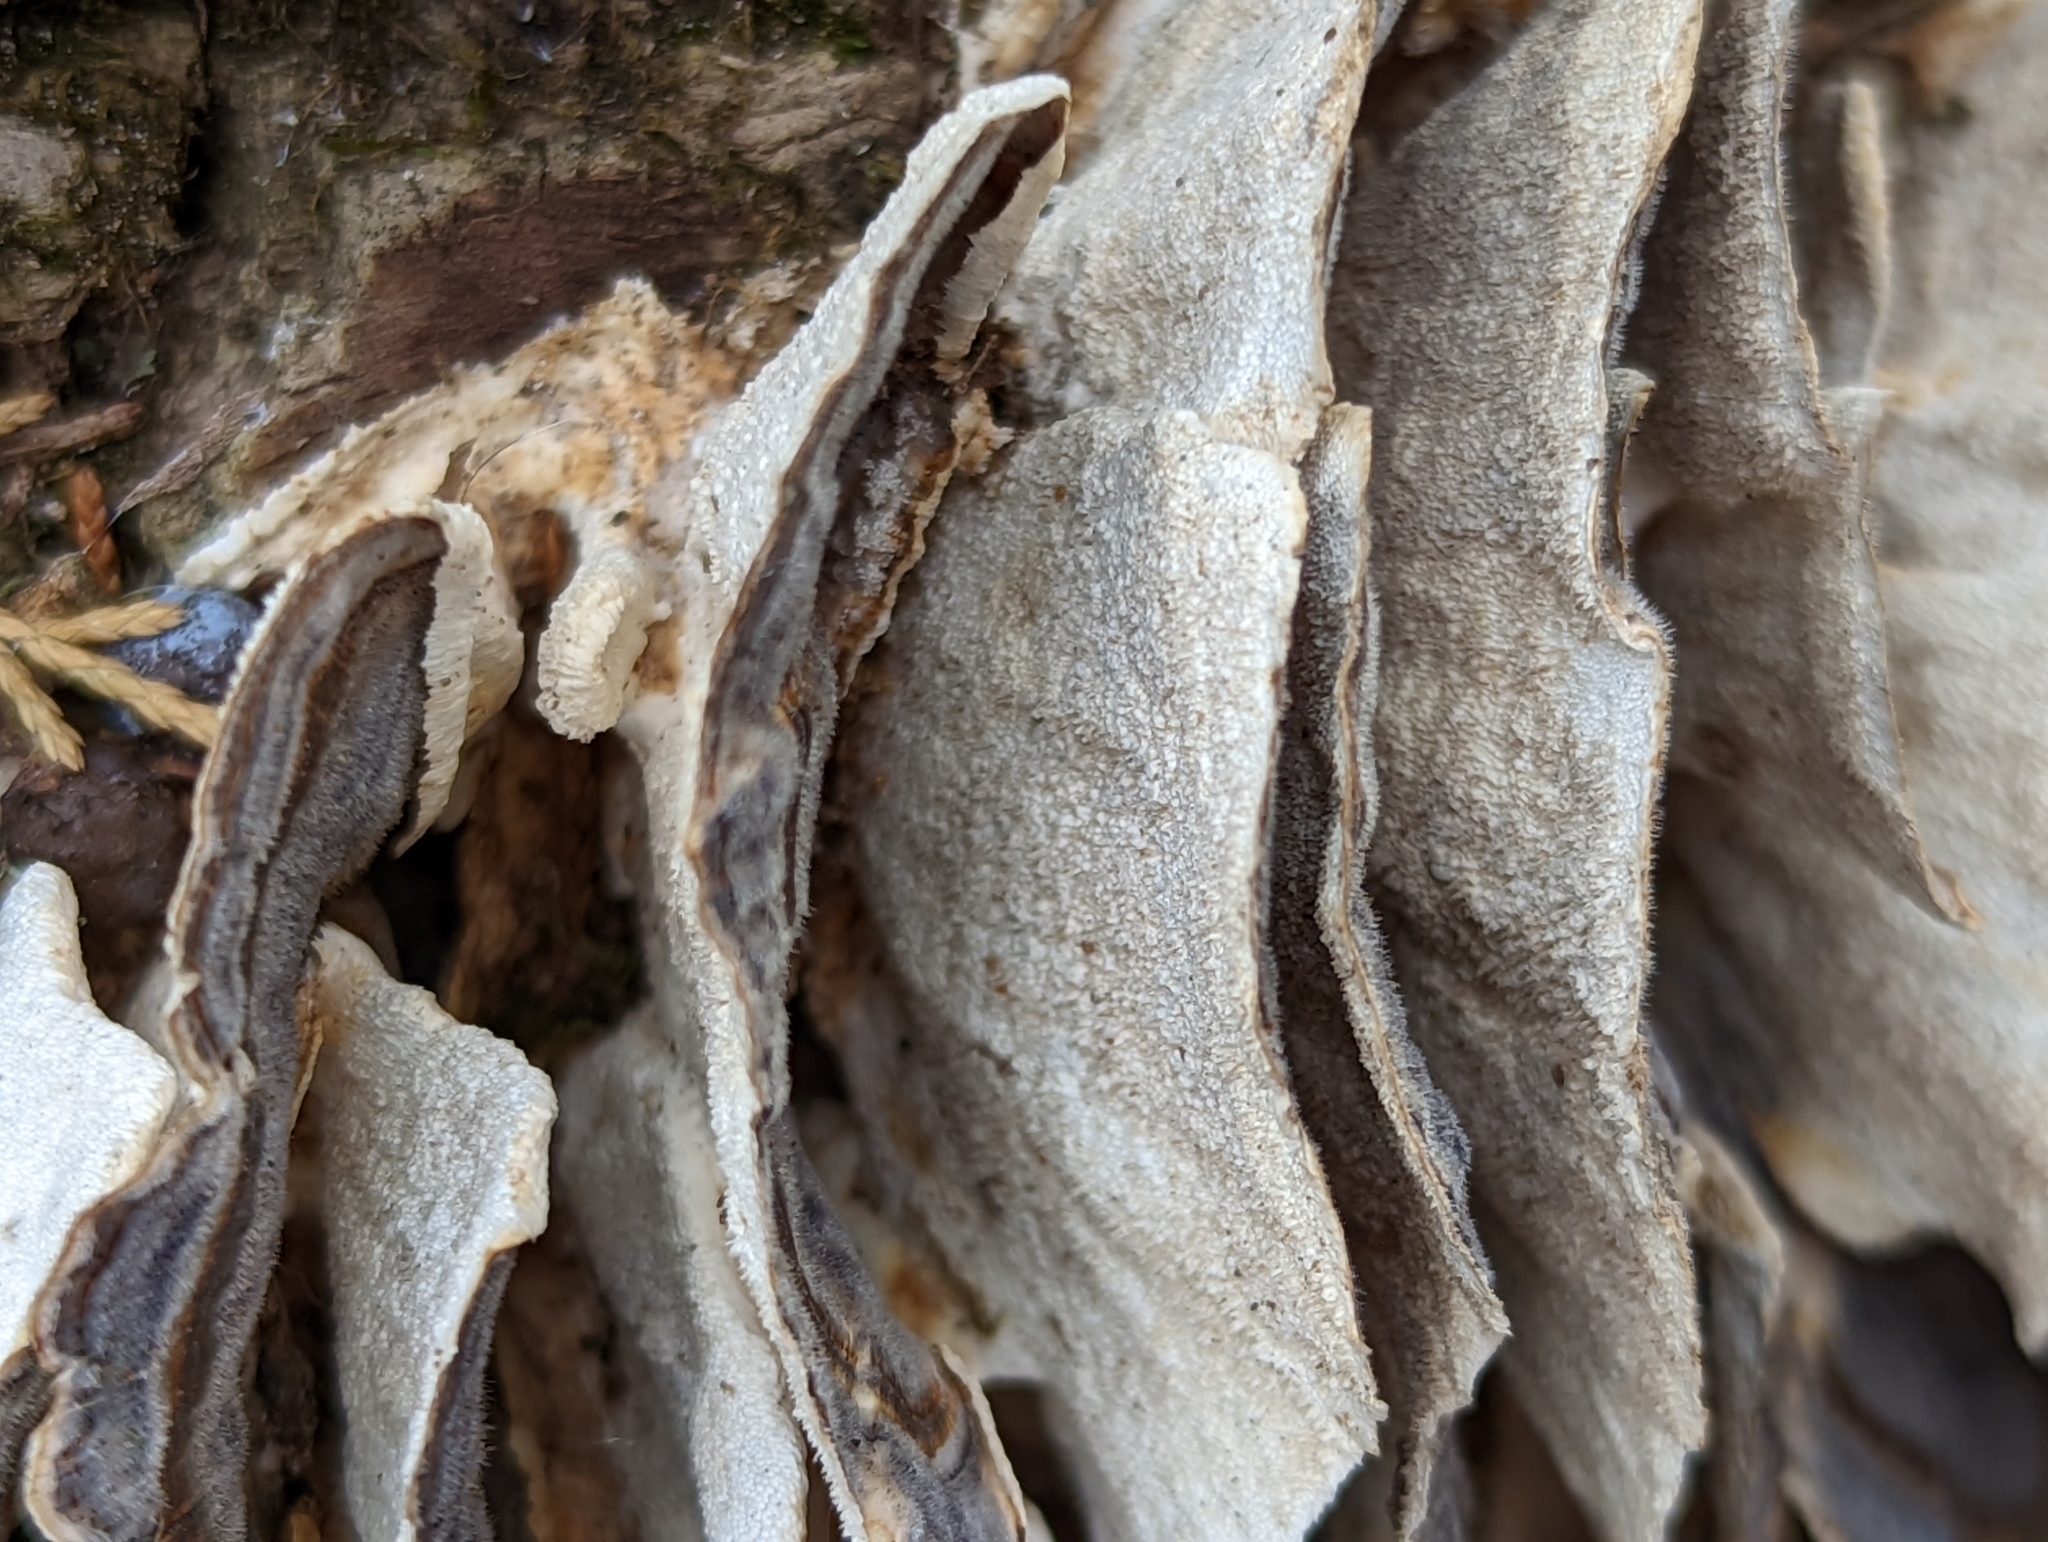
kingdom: Fungi
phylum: Basidiomycota
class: Agaricomycetes
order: Polyporales
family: Polyporaceae
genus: Trametes
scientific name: Trametes versicolor
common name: Turkeytail
